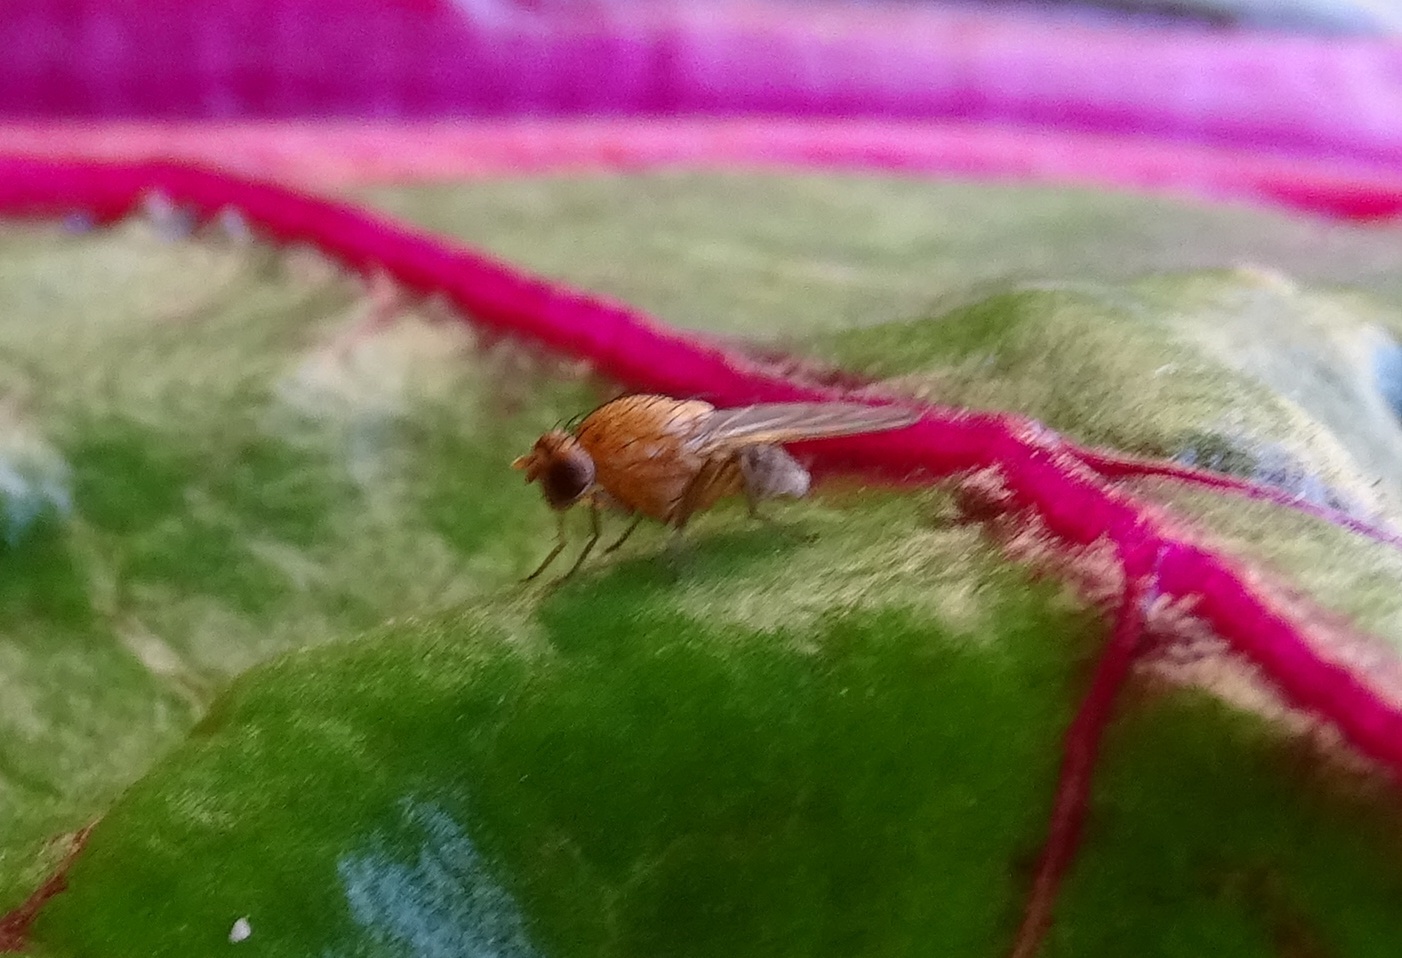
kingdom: Animalia
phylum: Arthropoda
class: Insecta
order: Diptera
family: Lauxaniidae
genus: Minettia
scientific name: Minettia flaveola
